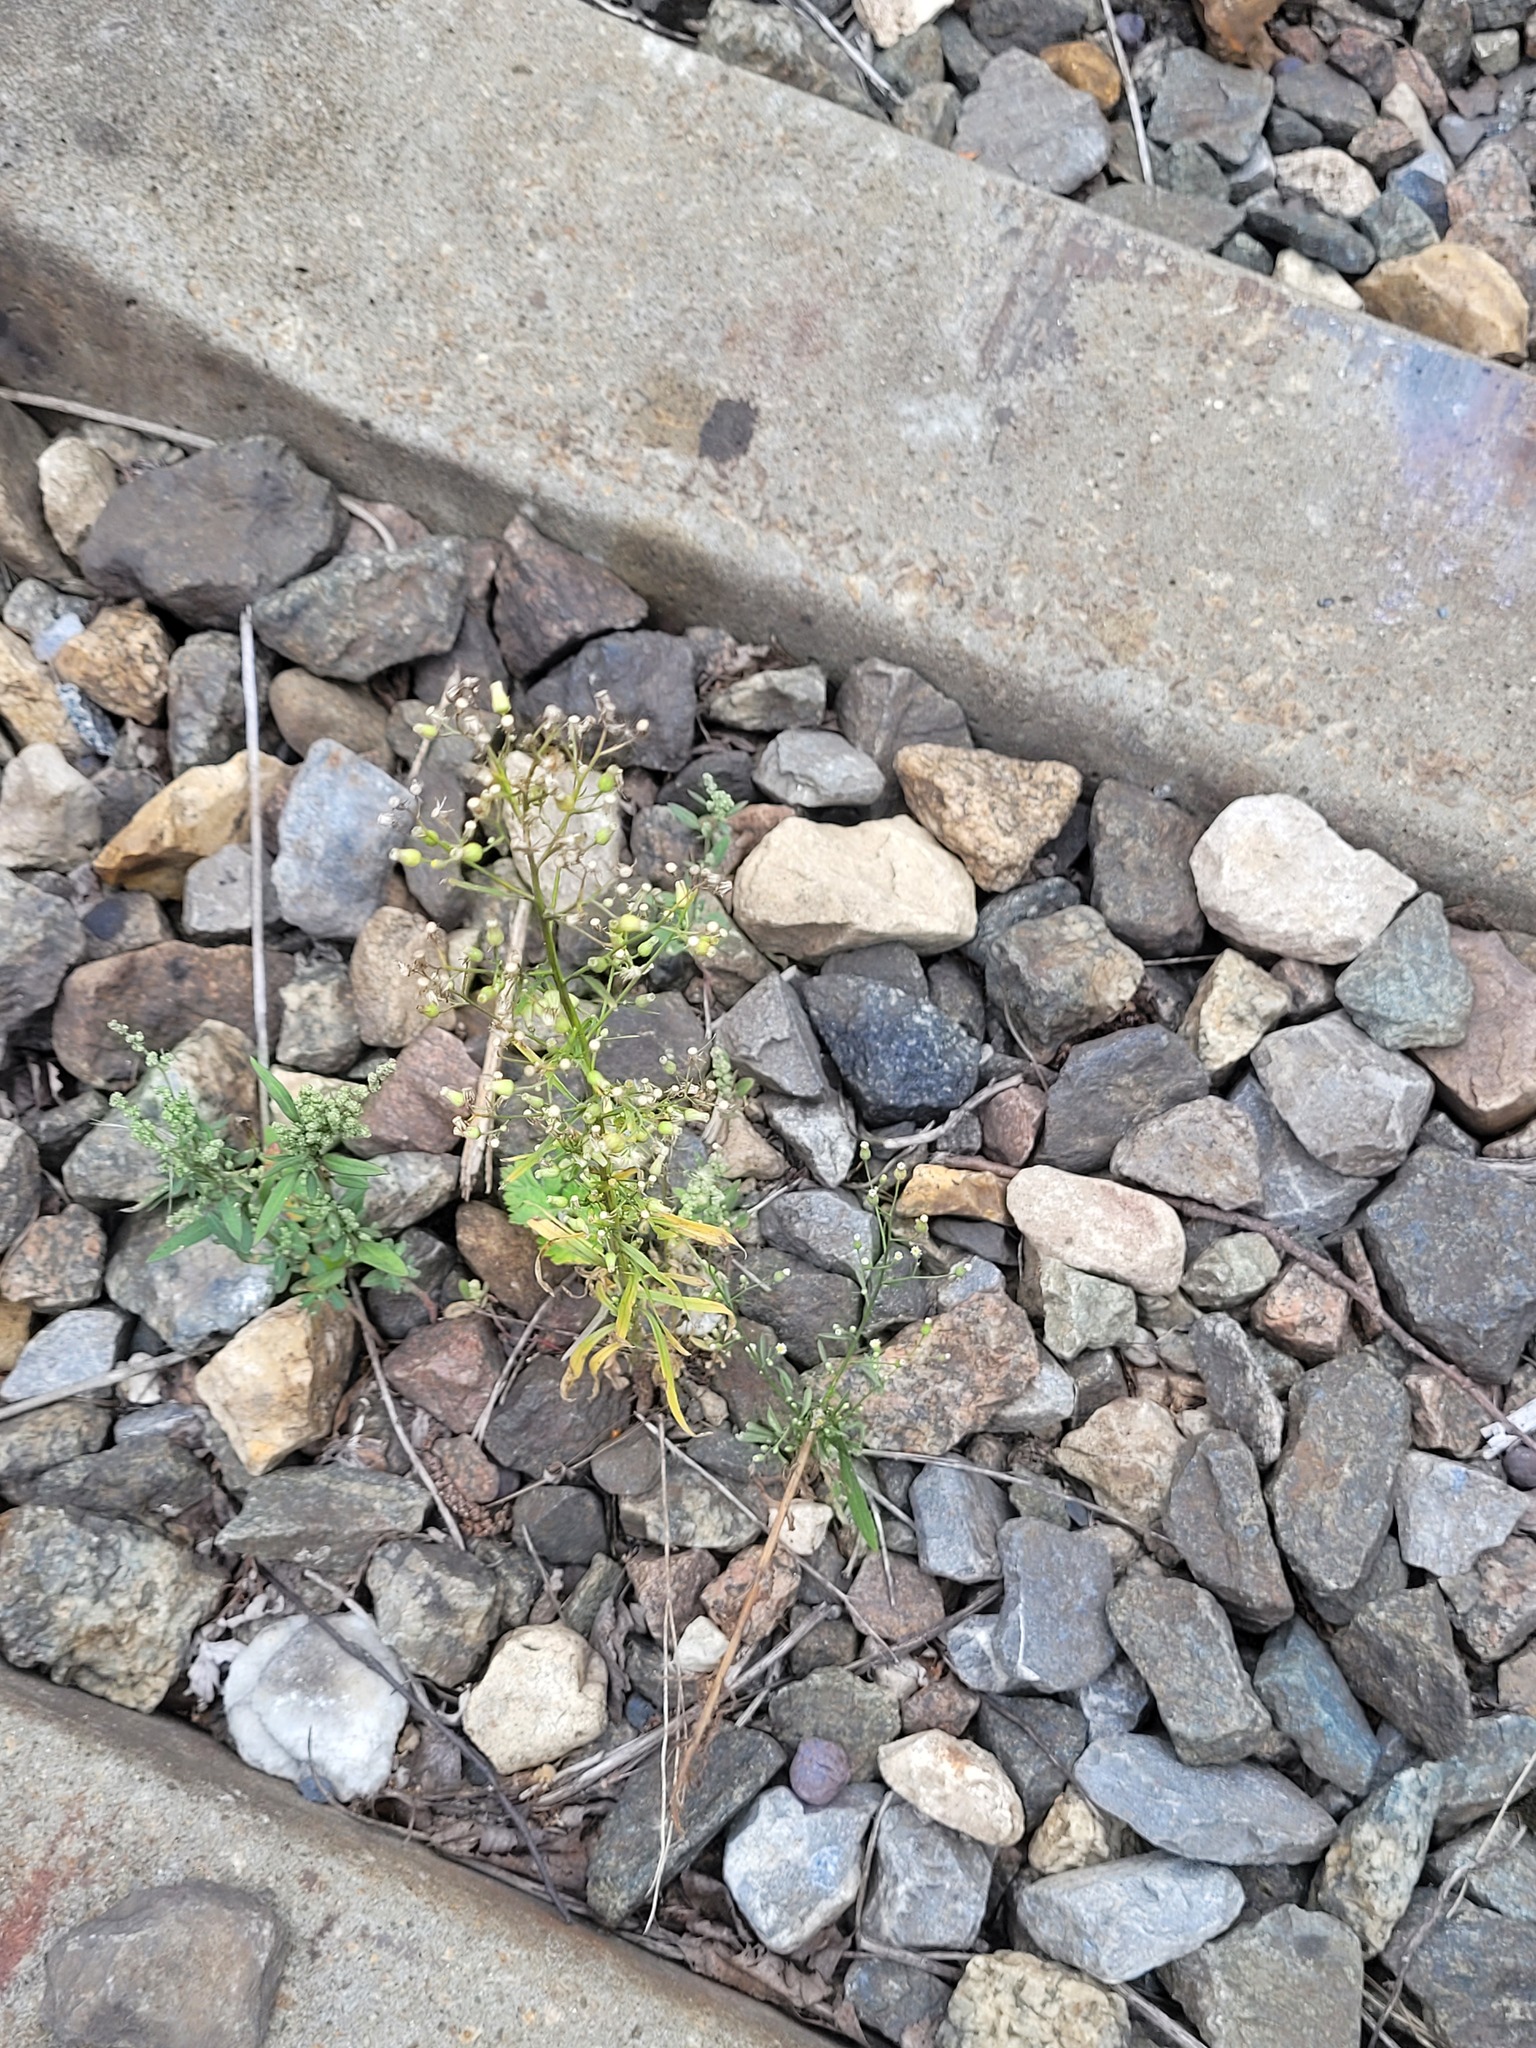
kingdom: Plantae
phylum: Tracheophyta
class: Magnoliopsida
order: Asterales
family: Asteraceae
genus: Erigeron
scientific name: Erigeron canadensis
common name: Canadian fleabane
